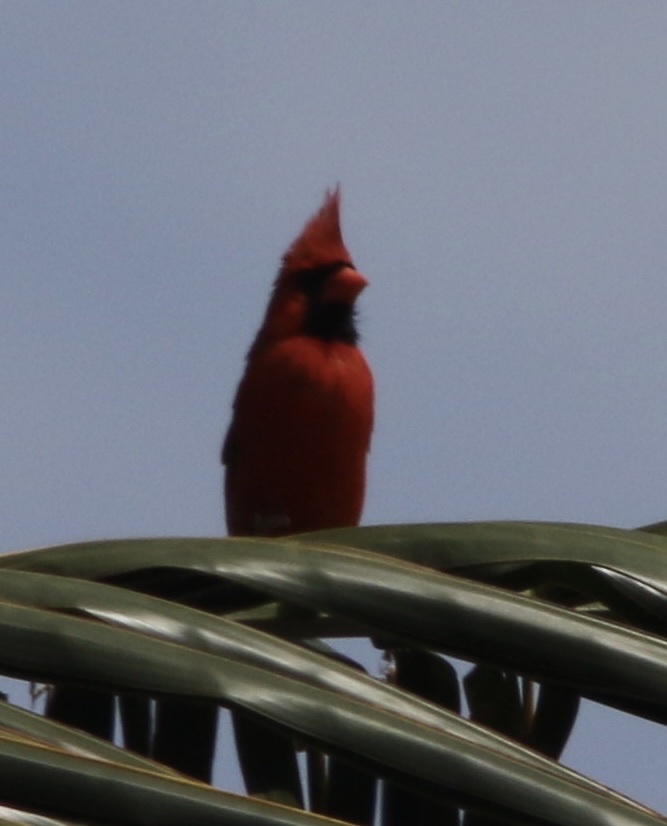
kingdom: Animalia
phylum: Chordata
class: Aves
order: Passeriformes
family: Cardinalidae
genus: Cardinalis
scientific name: Cardinalis cardinalis
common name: Northern cardinal
